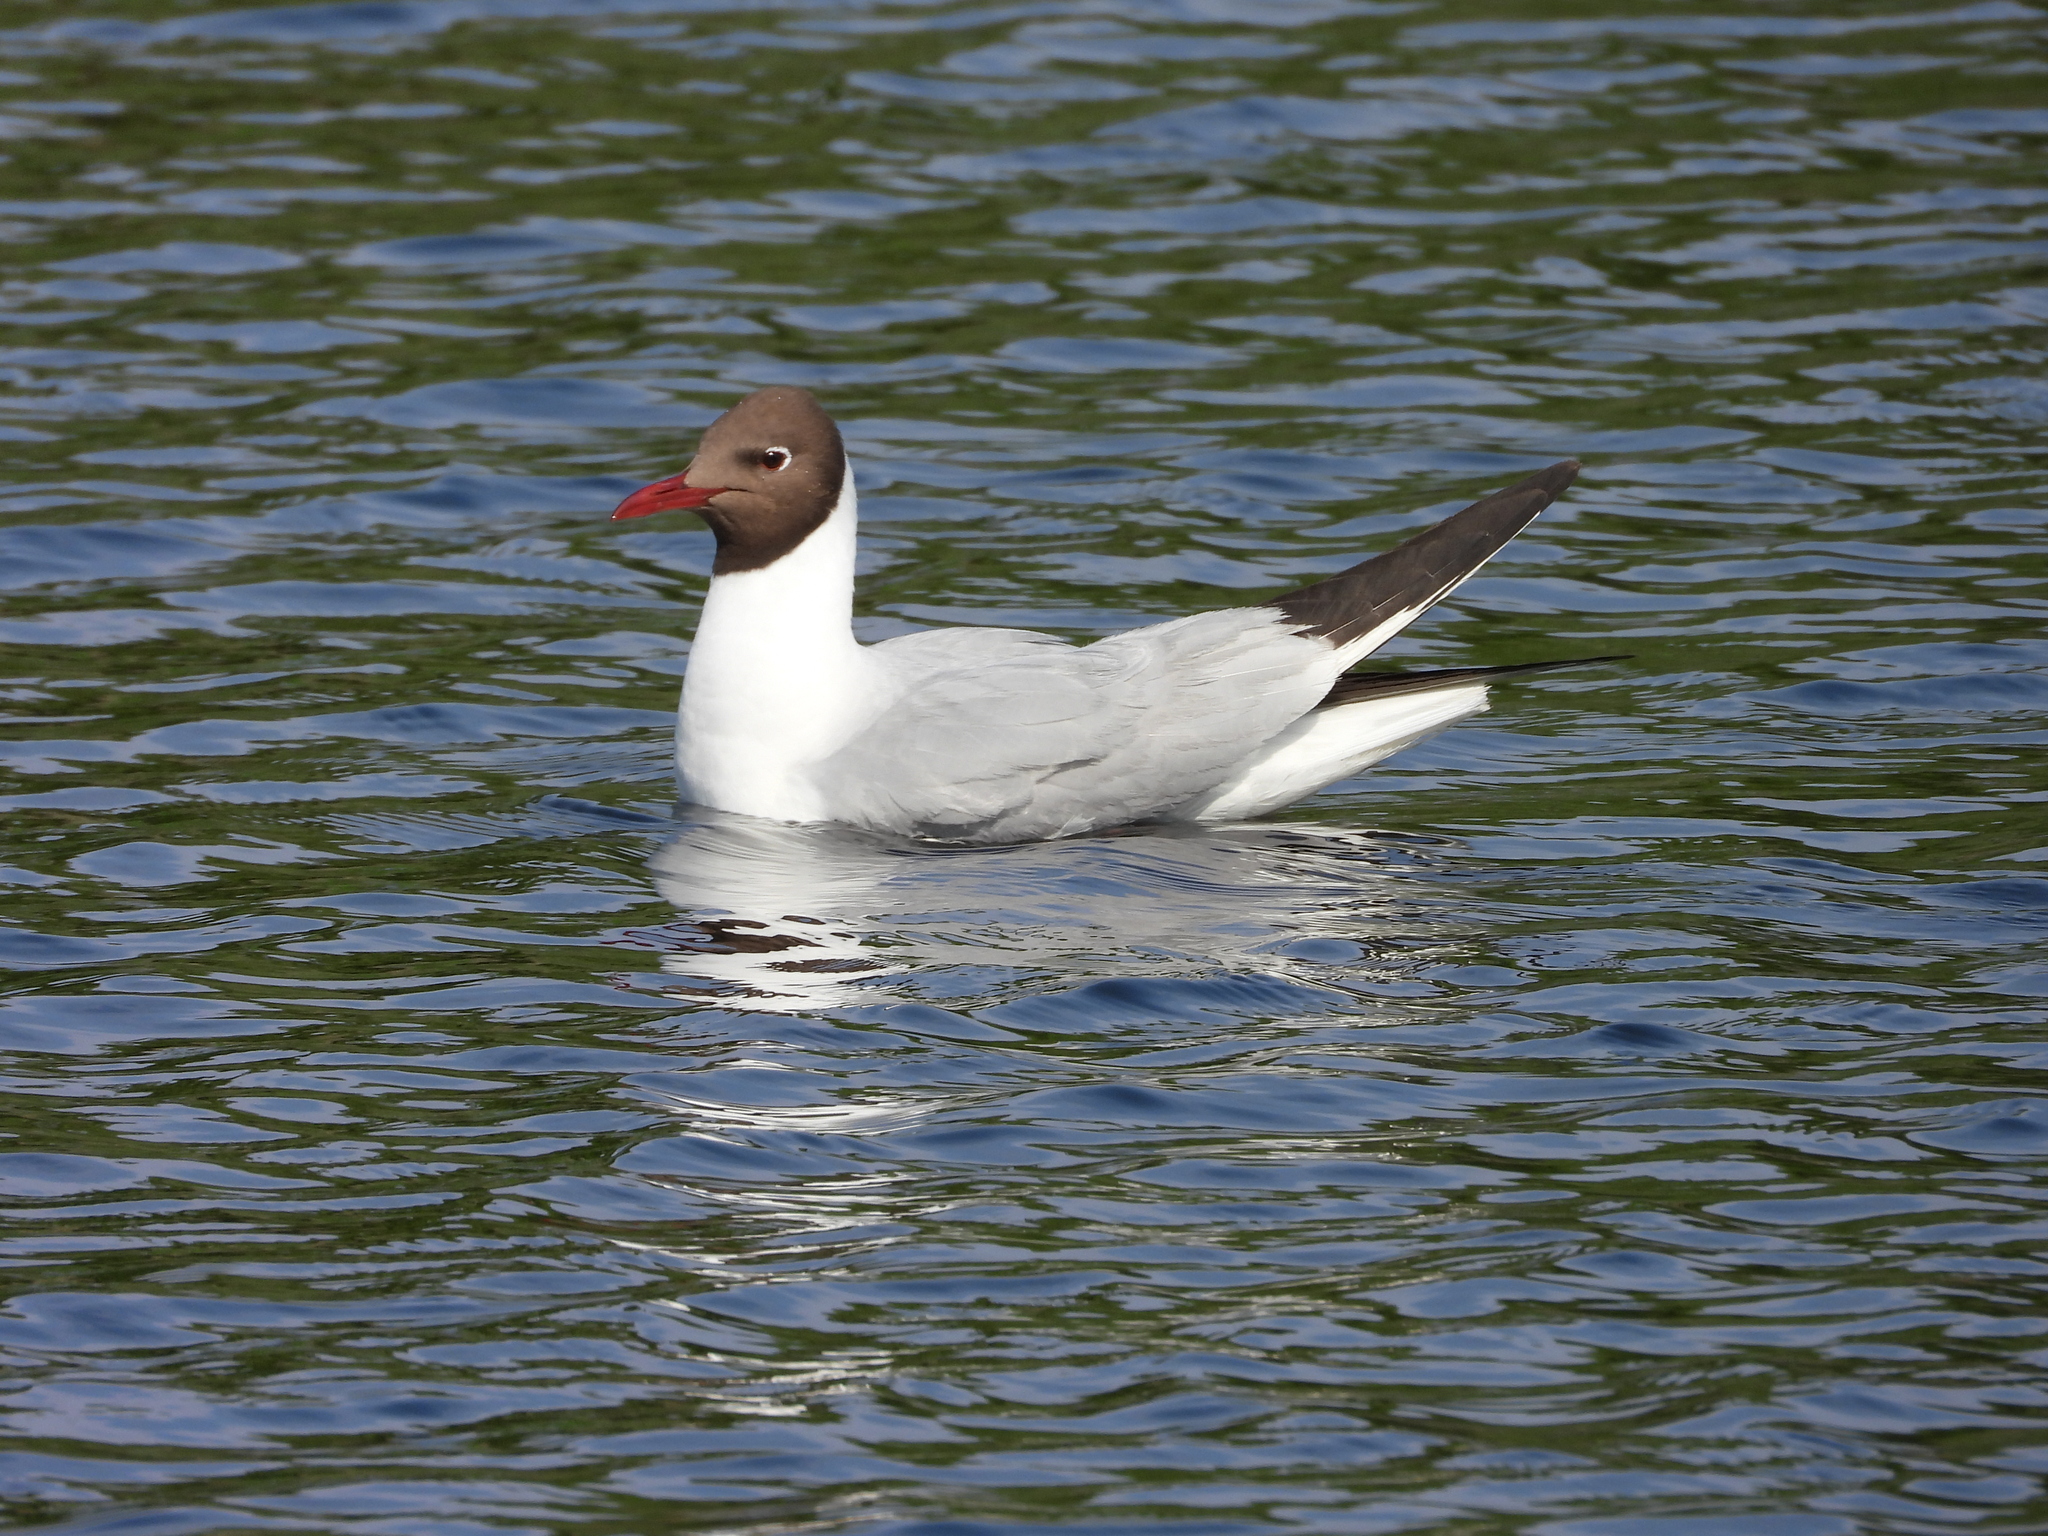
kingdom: Animalia
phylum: Chordata
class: Aves
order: Charadriiformes
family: Laridae
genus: Chroicocephalus
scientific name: Chroicocephalus ridibundus
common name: Black-headed gull
